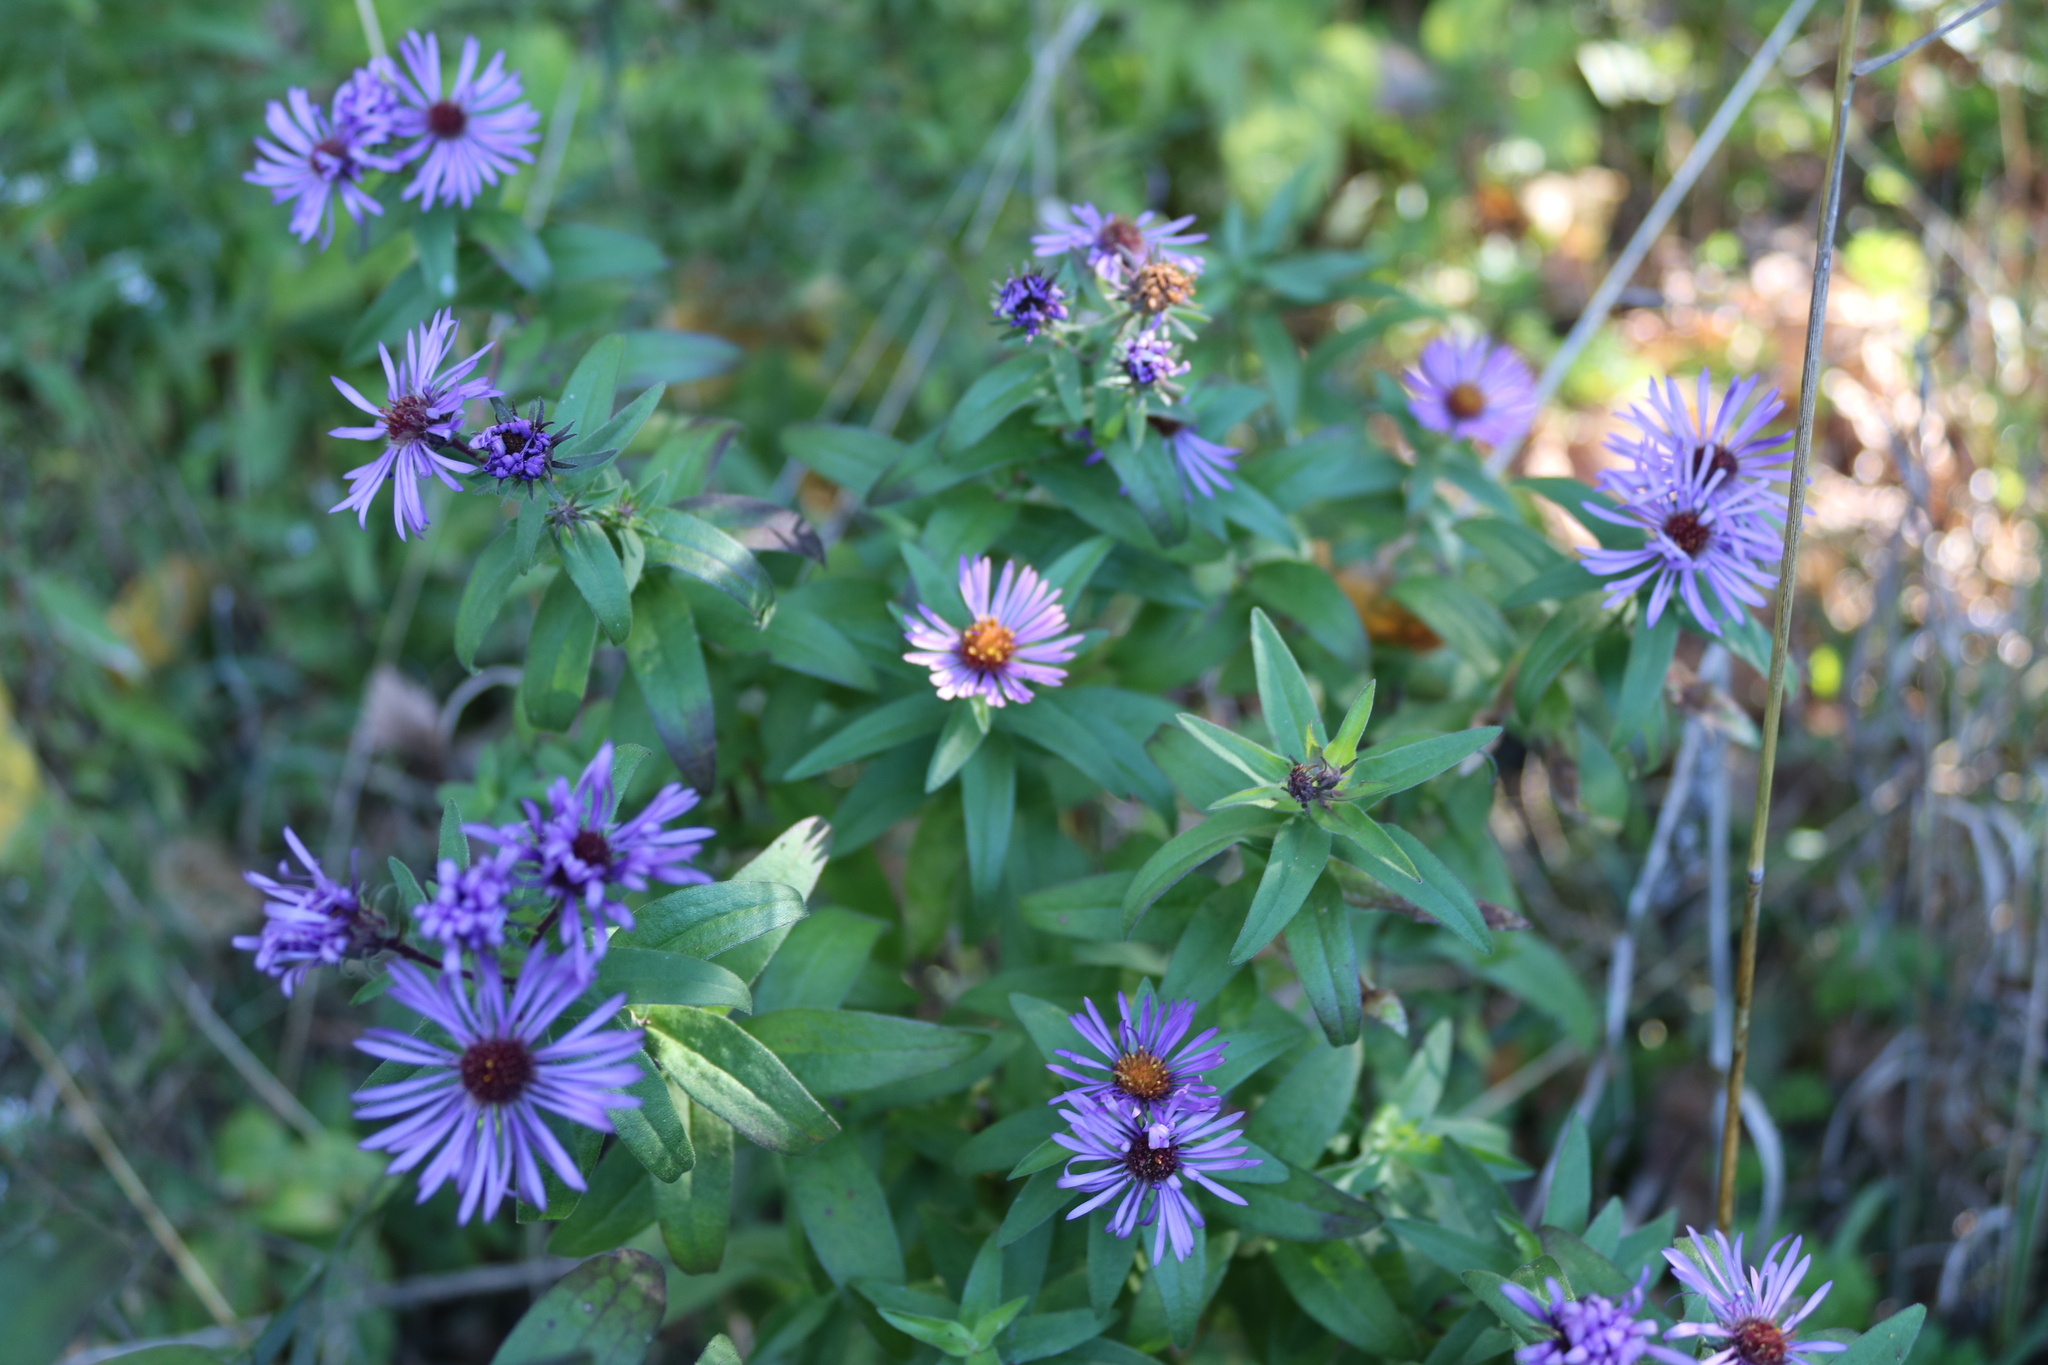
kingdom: Plantae
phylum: Tracheophyta
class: Magnoliopsida
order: Asterales
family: Asteraceae
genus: Symphyotrichum
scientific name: Symphyotrichum novae-angliae
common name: Michaelmas daisy
